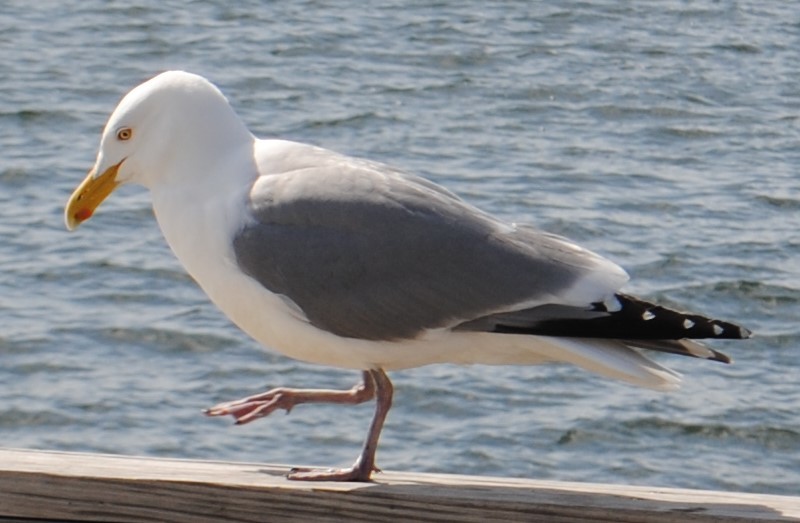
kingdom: Animalia
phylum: Chordata
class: Aves
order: Charadriiformes
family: Laridae
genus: Larus
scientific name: Larus argentatus
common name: Herring gull
